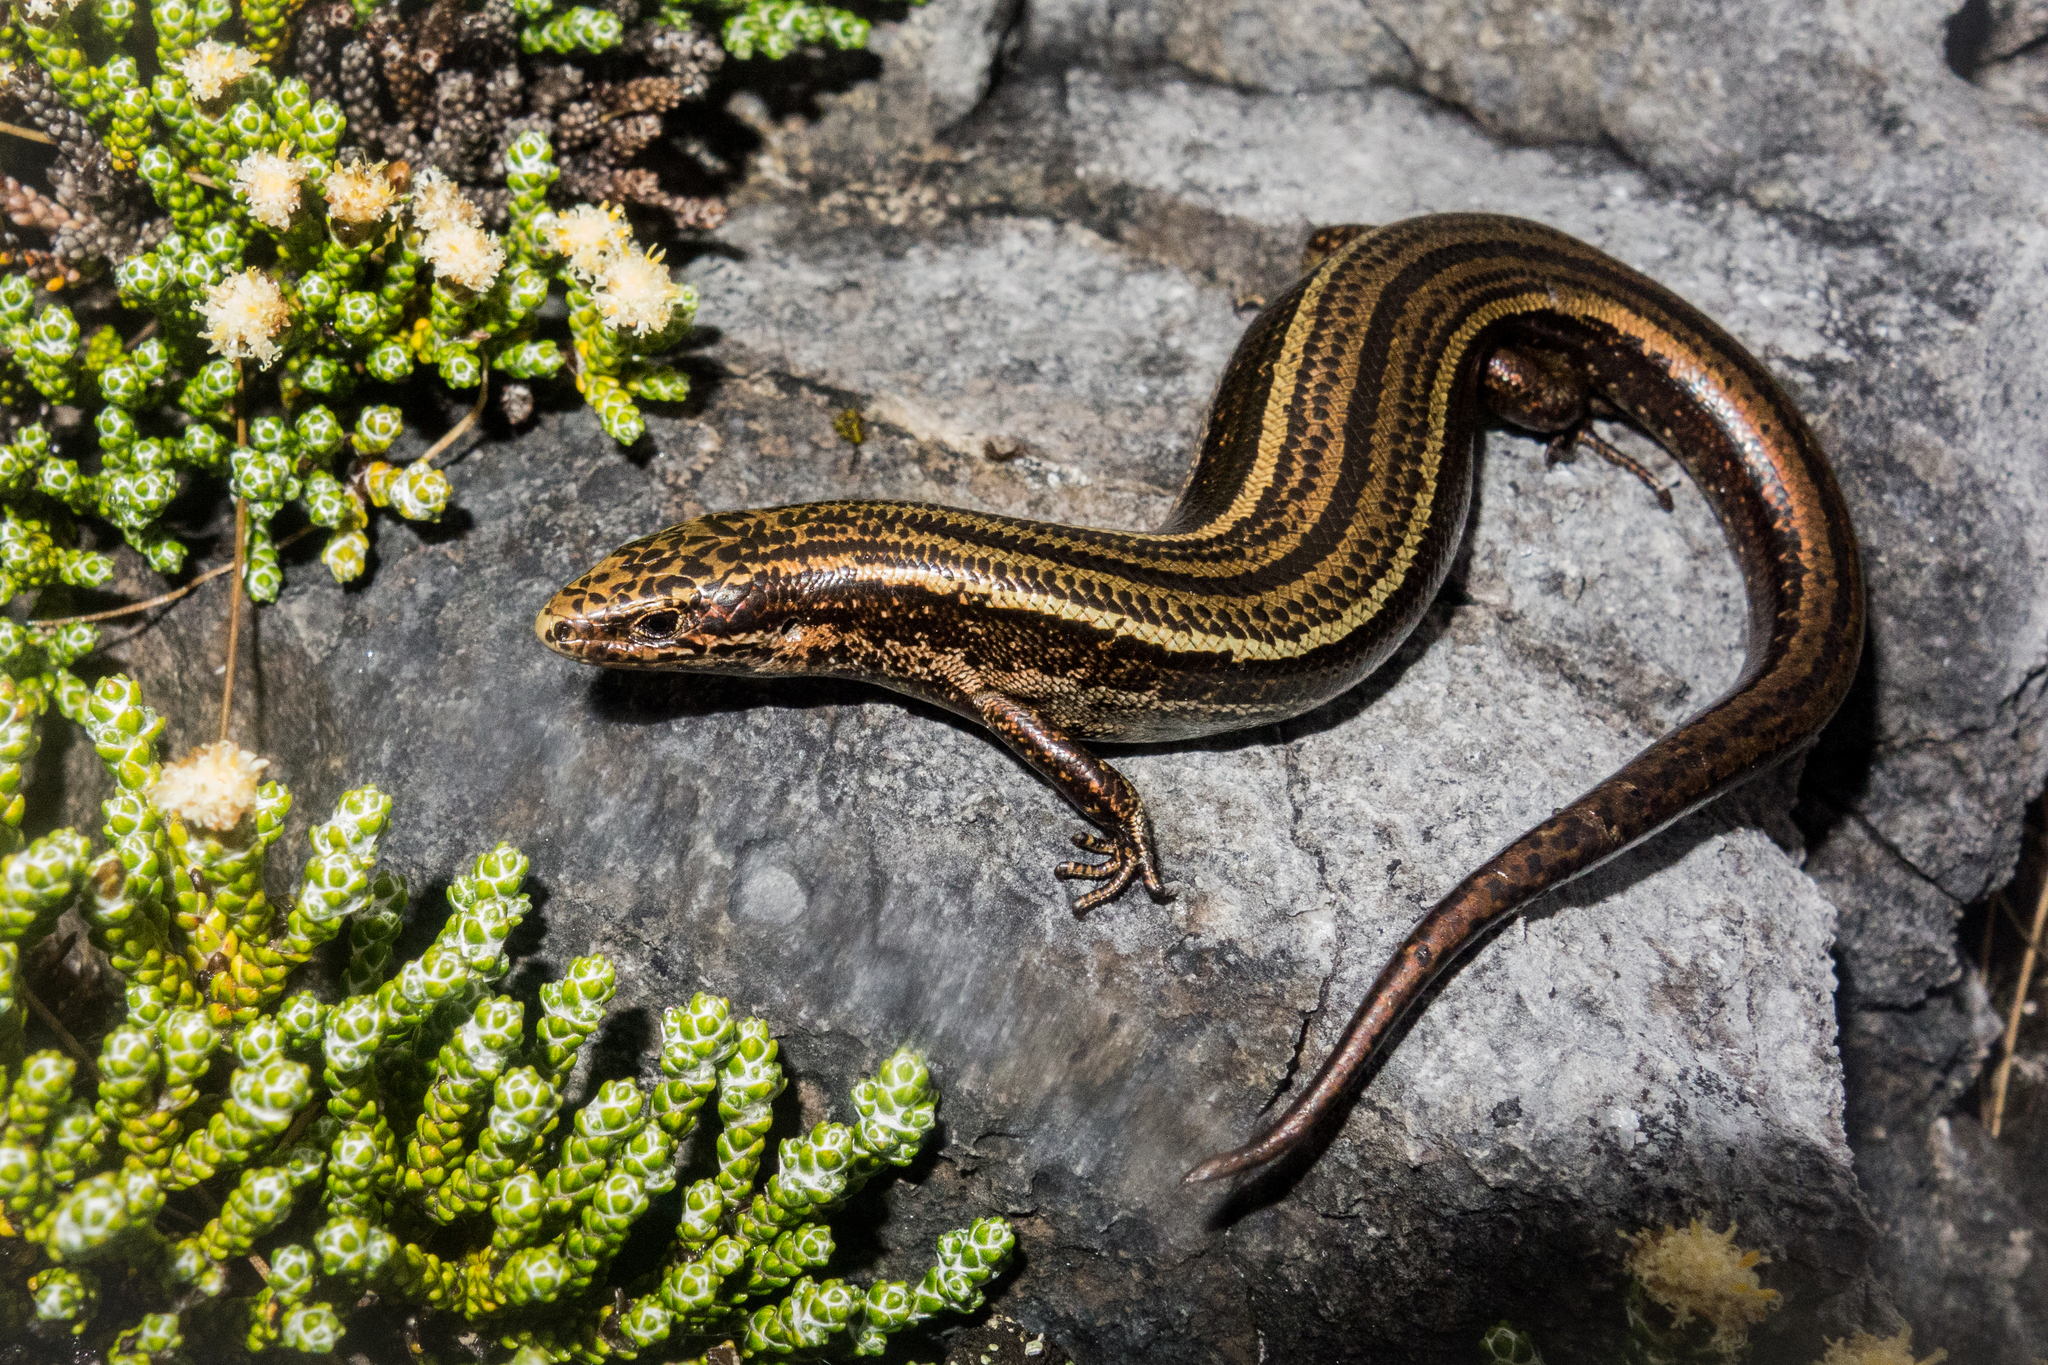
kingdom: Animalia
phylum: Chordata
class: Squamata
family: Scincidae
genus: Oligosoma
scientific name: Oligosoma newmani
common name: Newman’s speckled skink
